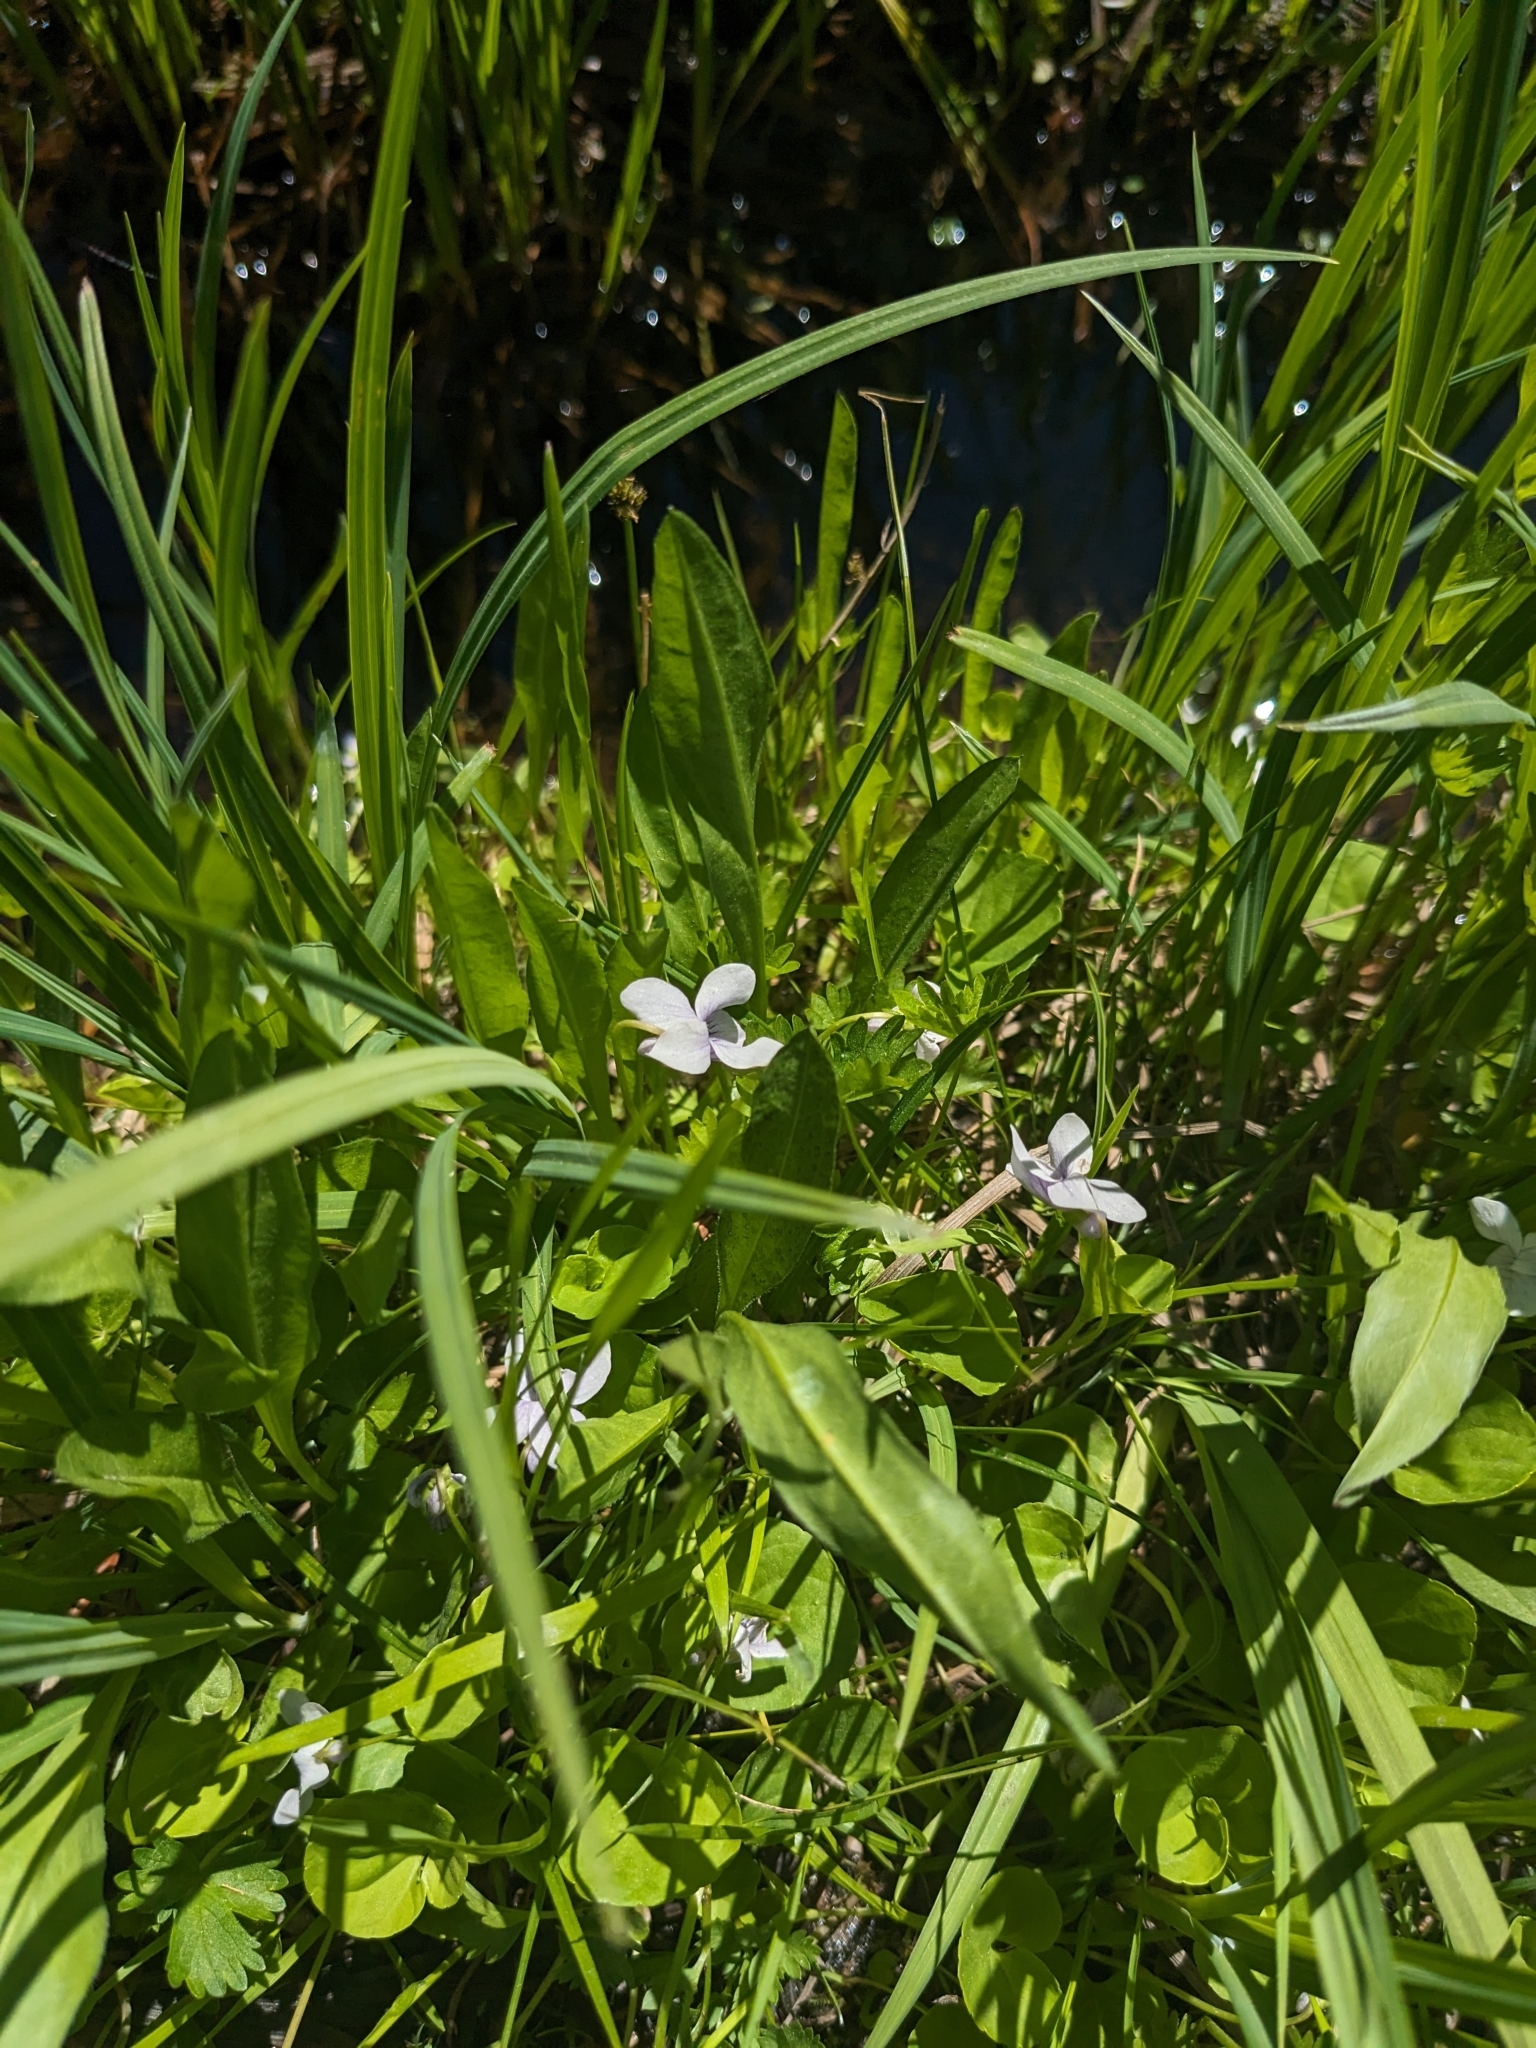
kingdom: Plantae
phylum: Tracheophyta
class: Magnoliopsida
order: Malpighiales
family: Violaceae
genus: Viola
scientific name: Viola palustris
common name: Marsh violet
